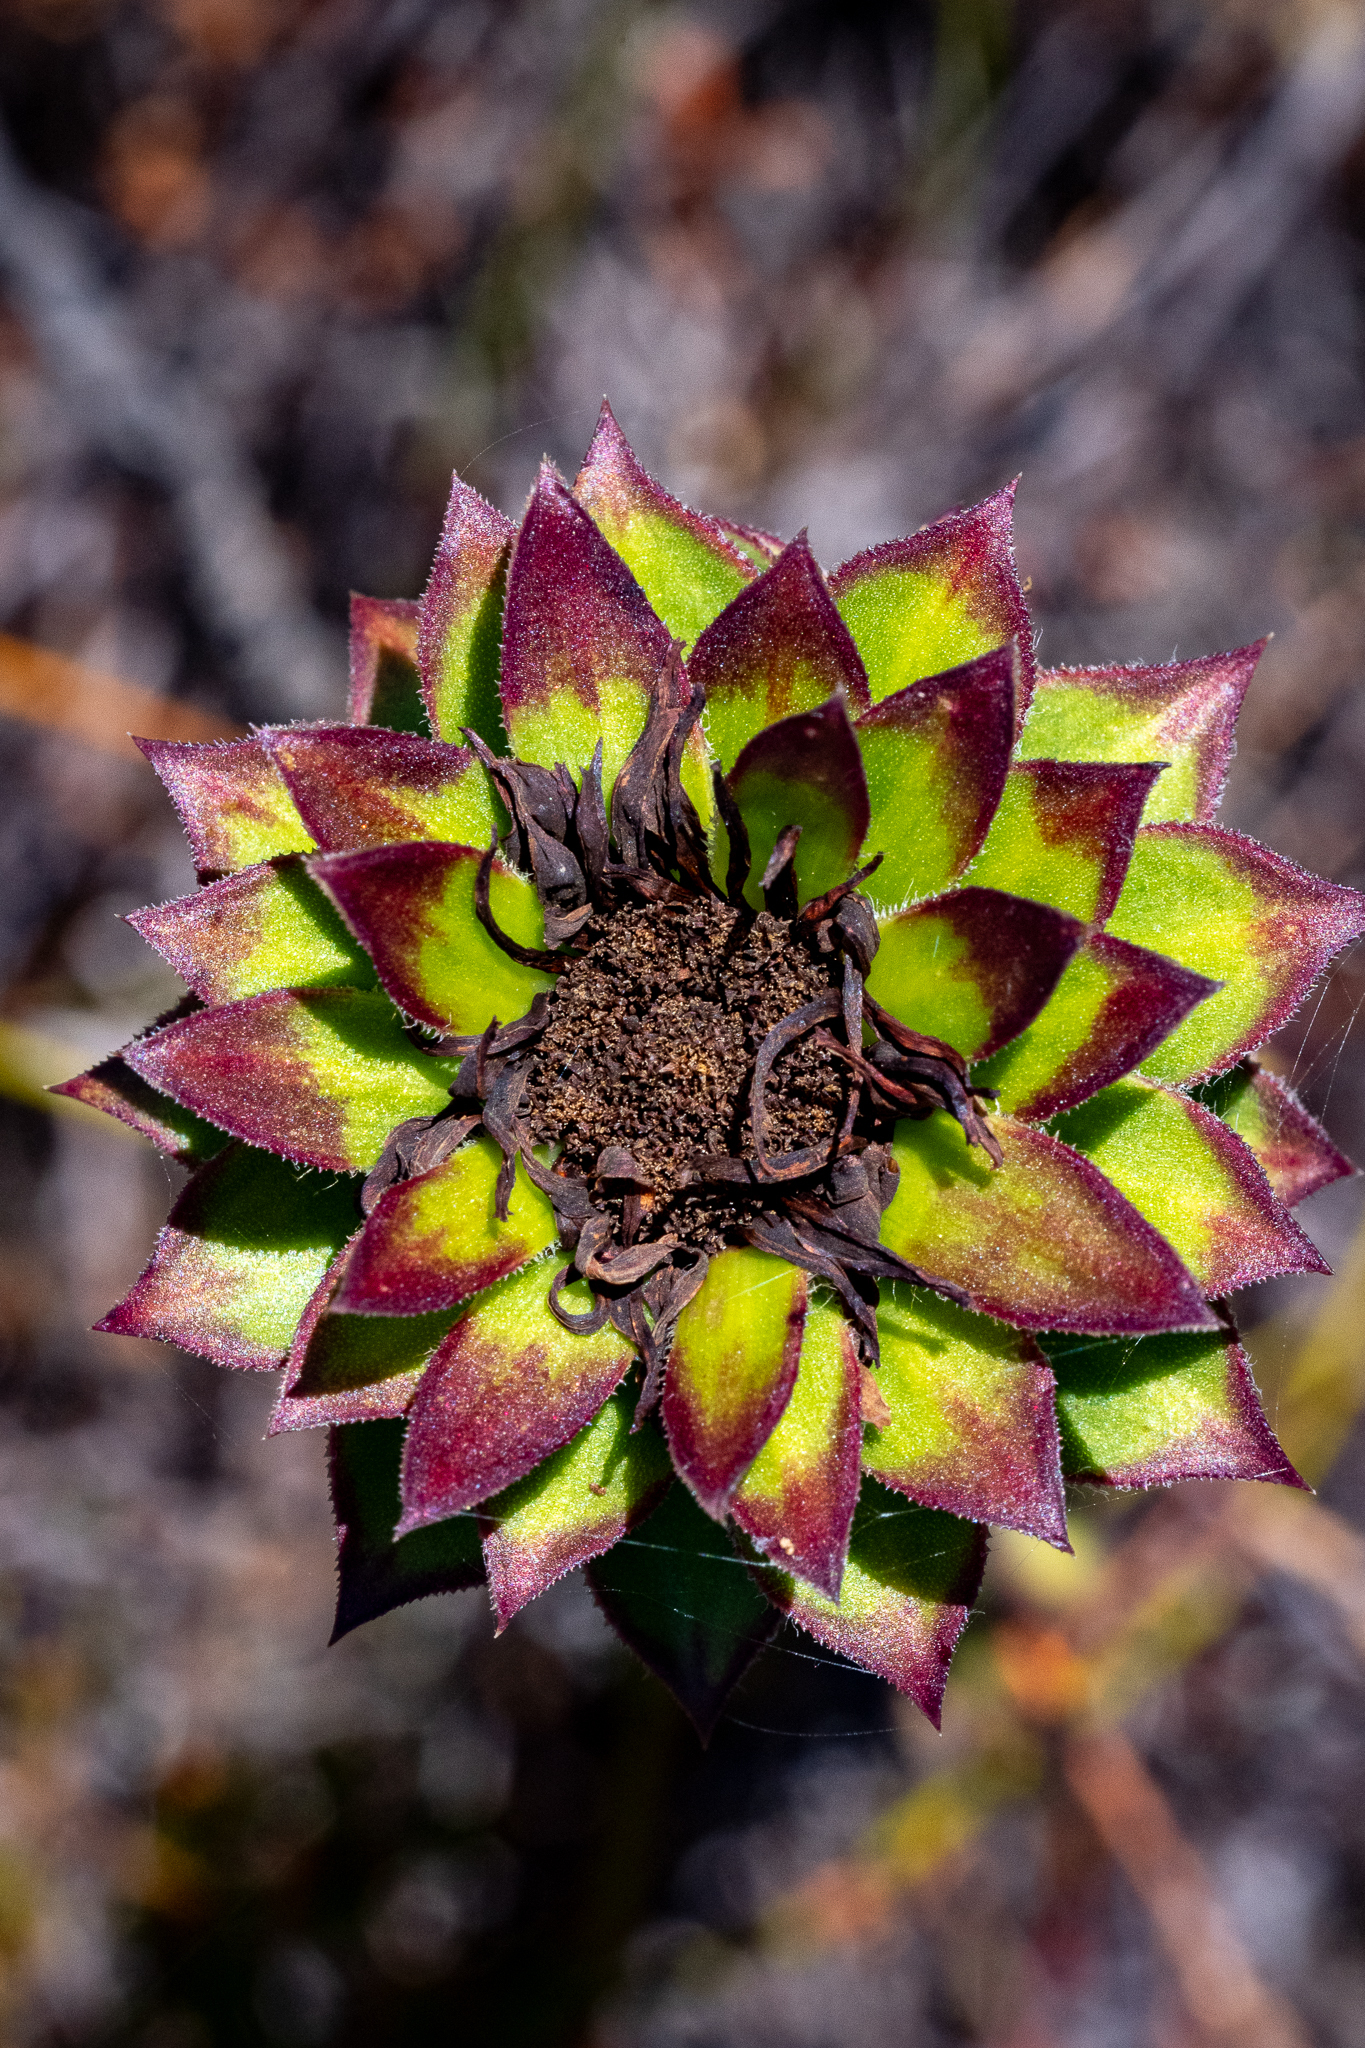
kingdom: Plantae
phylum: Tracheophyta
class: Magnoliopsida
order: Asterales
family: Asteraceae
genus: Oedera
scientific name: Oedera imbricata
